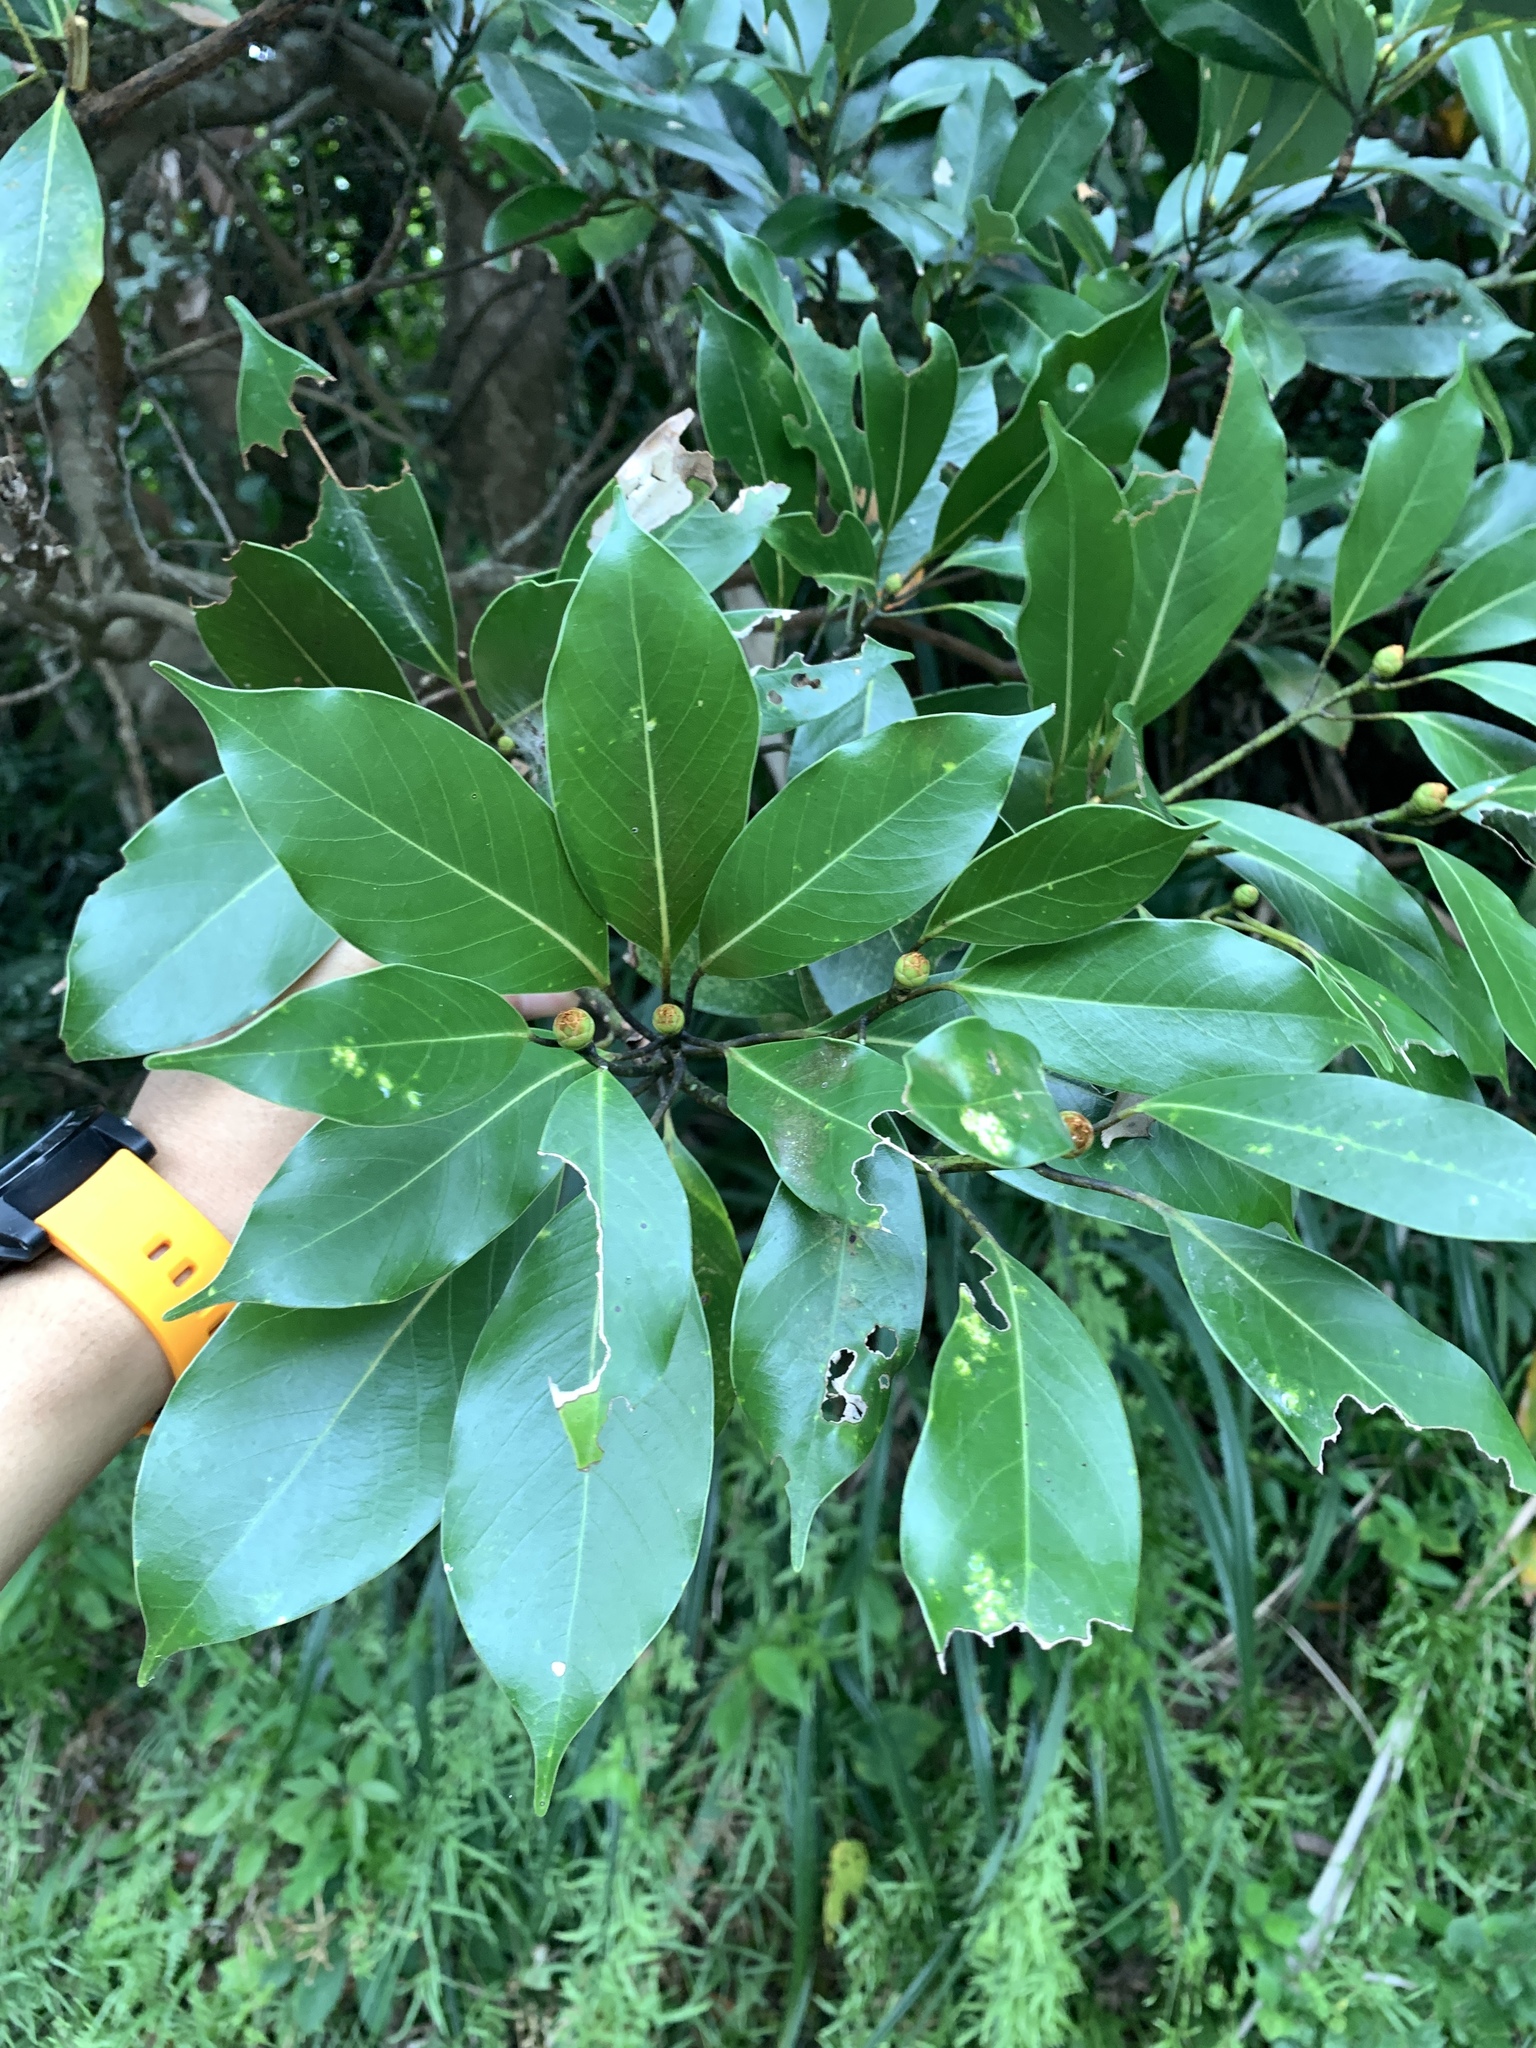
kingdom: Plantae
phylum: Tracheophyta
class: Magnoliopsida
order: Laurales
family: Lauraceae
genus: Machilus
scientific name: Machilus thunbergii
